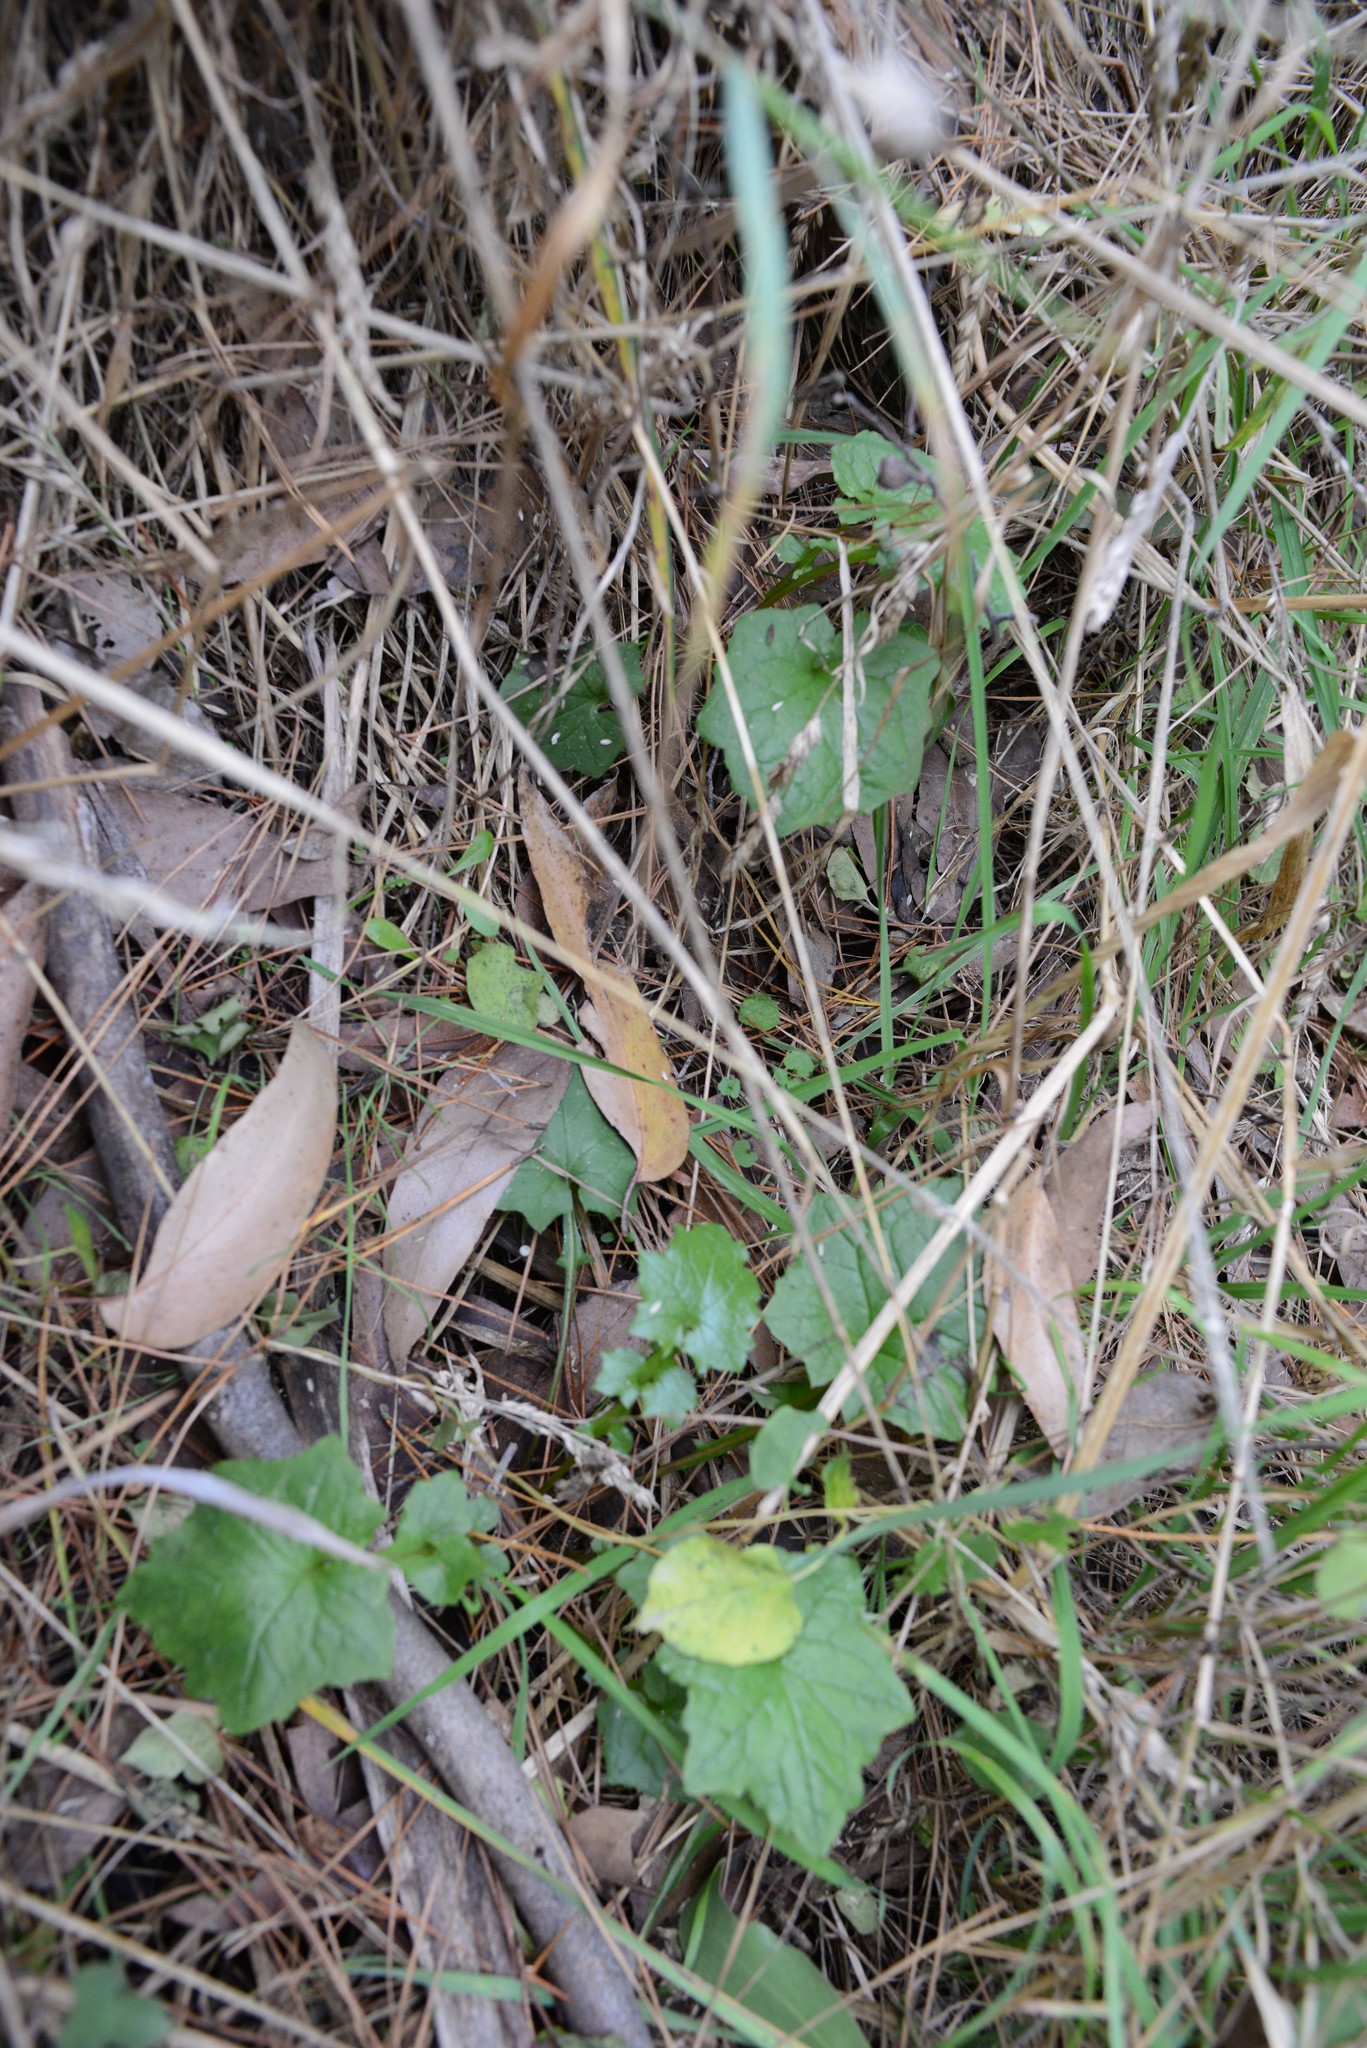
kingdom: Plantae
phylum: Tracheophyta
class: Magnoliopsida
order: Asterales
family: Asteraceae
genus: Mycelis
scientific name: Mycelis muralis
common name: Wall lettuce
